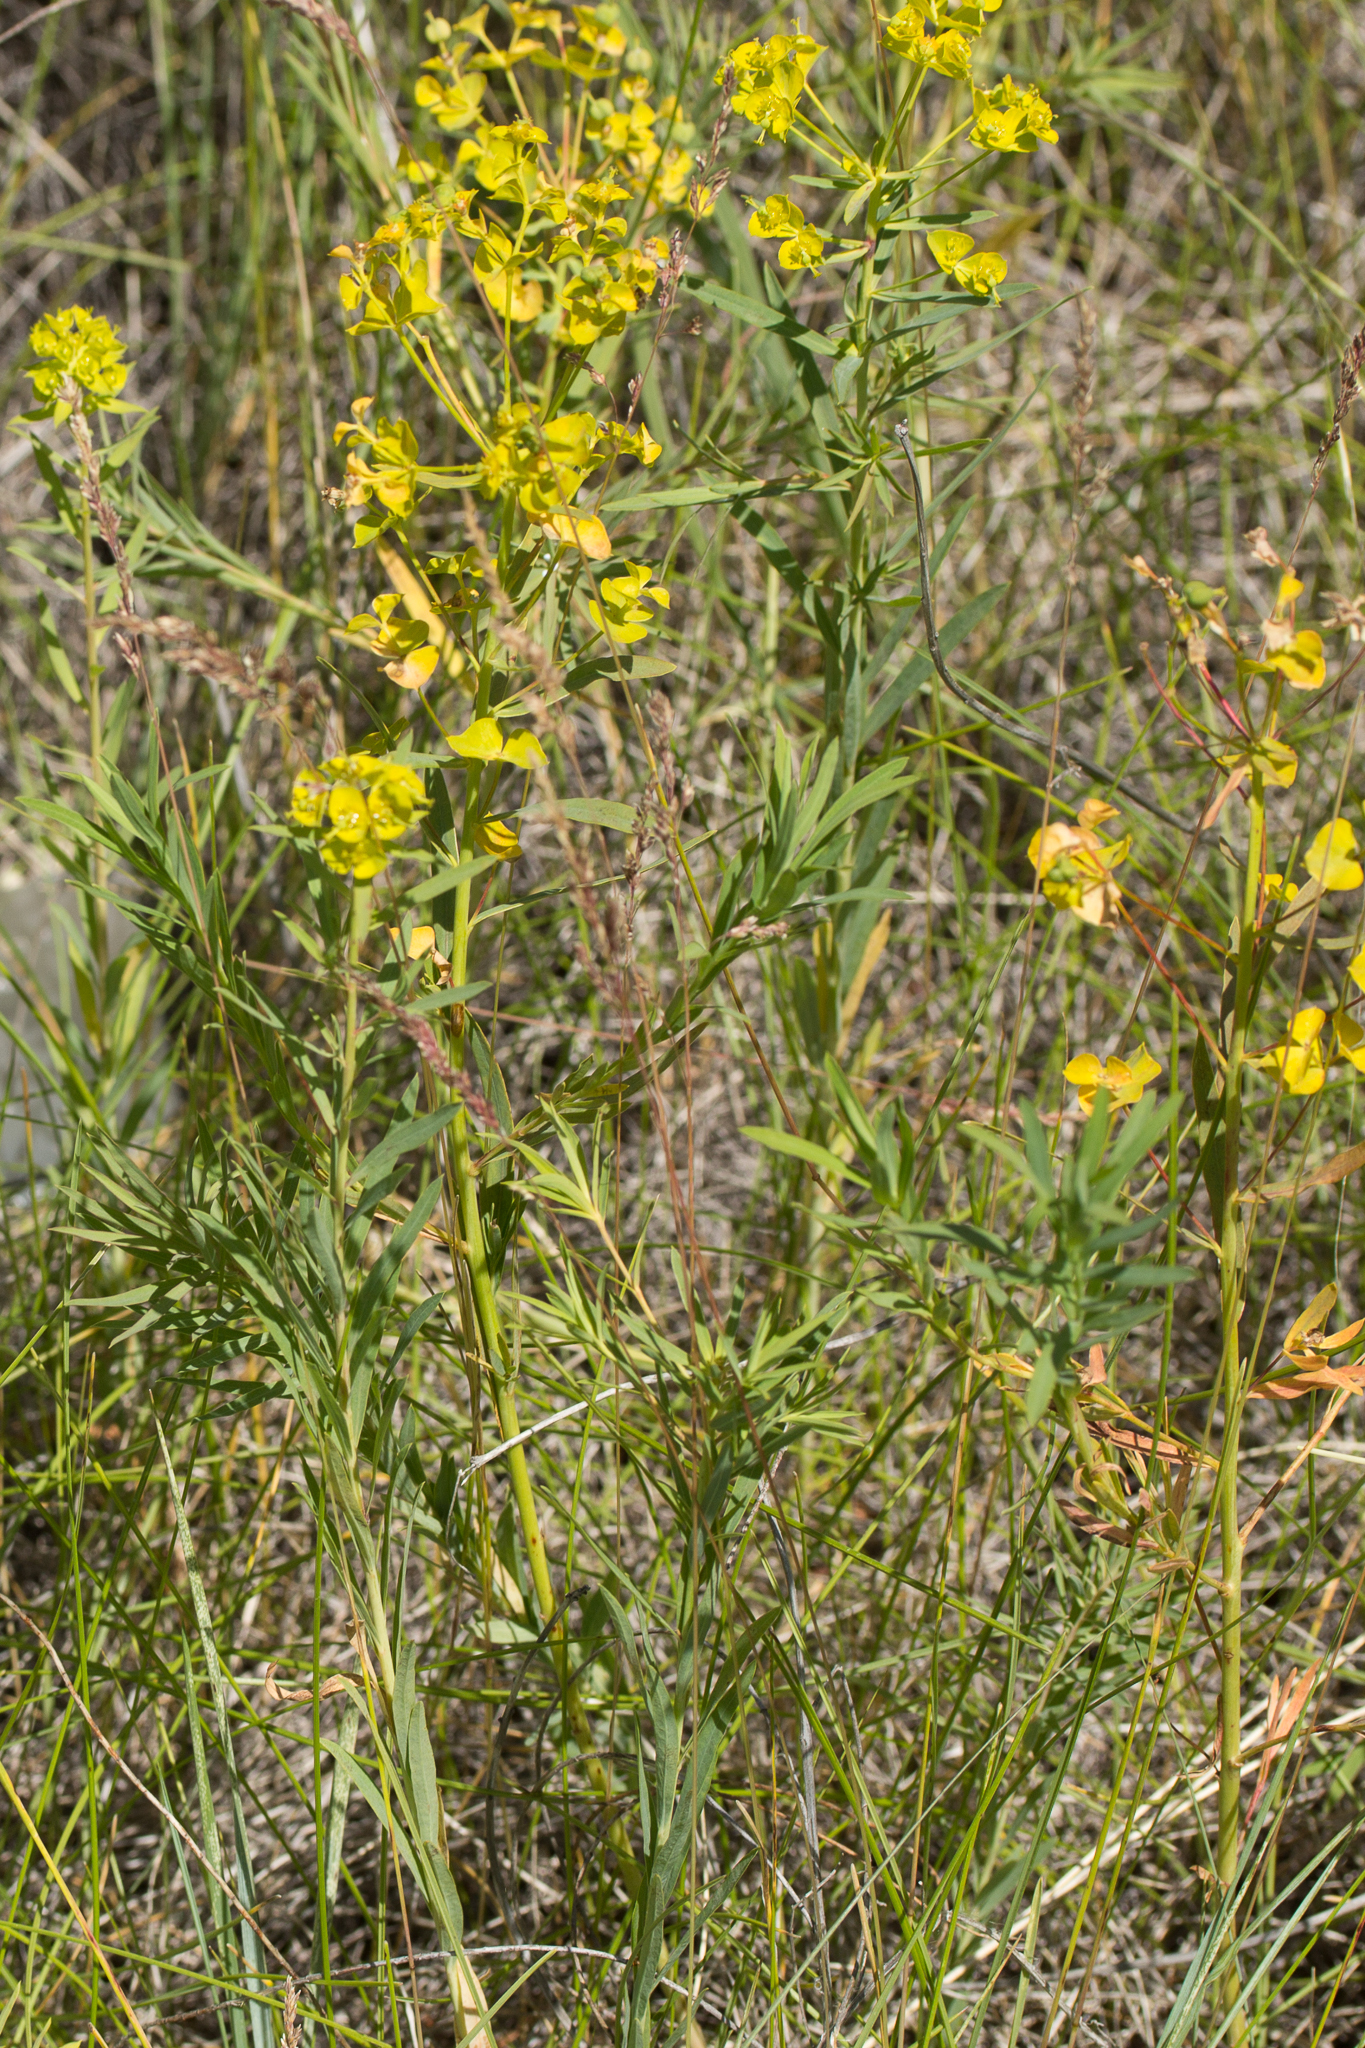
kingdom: Plantae
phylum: Tracheophyta
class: Magnoliopsida
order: Malpighiales
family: Euphorbiaceae
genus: Euphorbia
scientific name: Euphorbia virgata
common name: Leafy spurge
